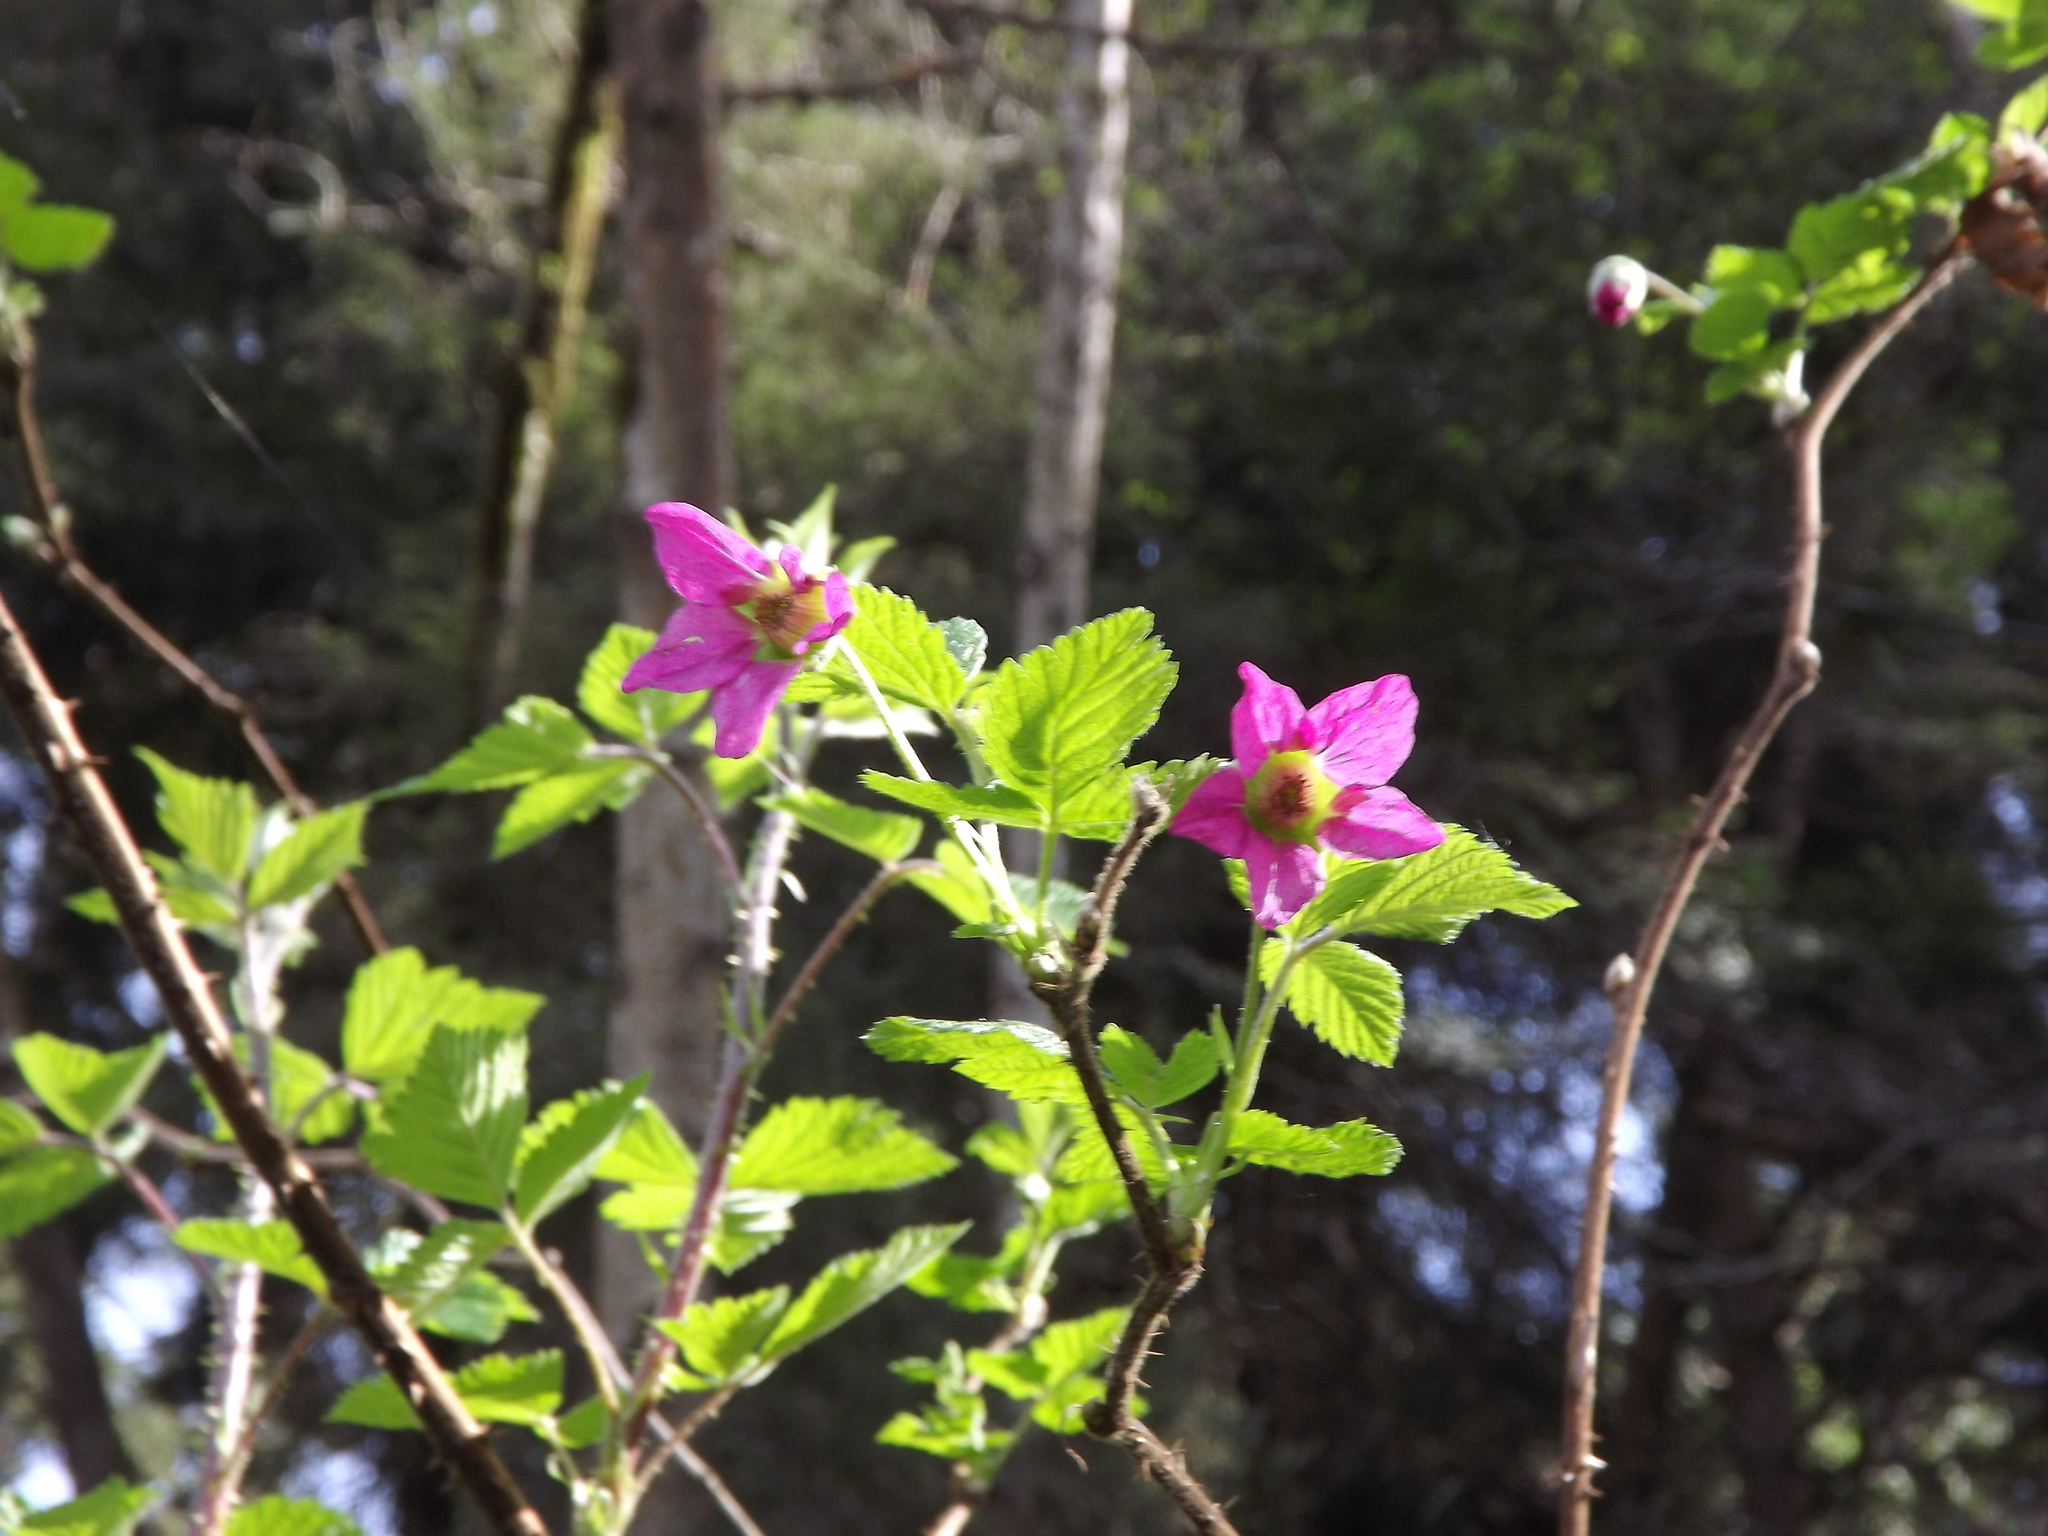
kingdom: Plantae
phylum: Tracheophyta
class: Magnoliopsida
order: Rosales
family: Rosaceae
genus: Rubus
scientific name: Rubus spectabilis
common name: Salmonberry
